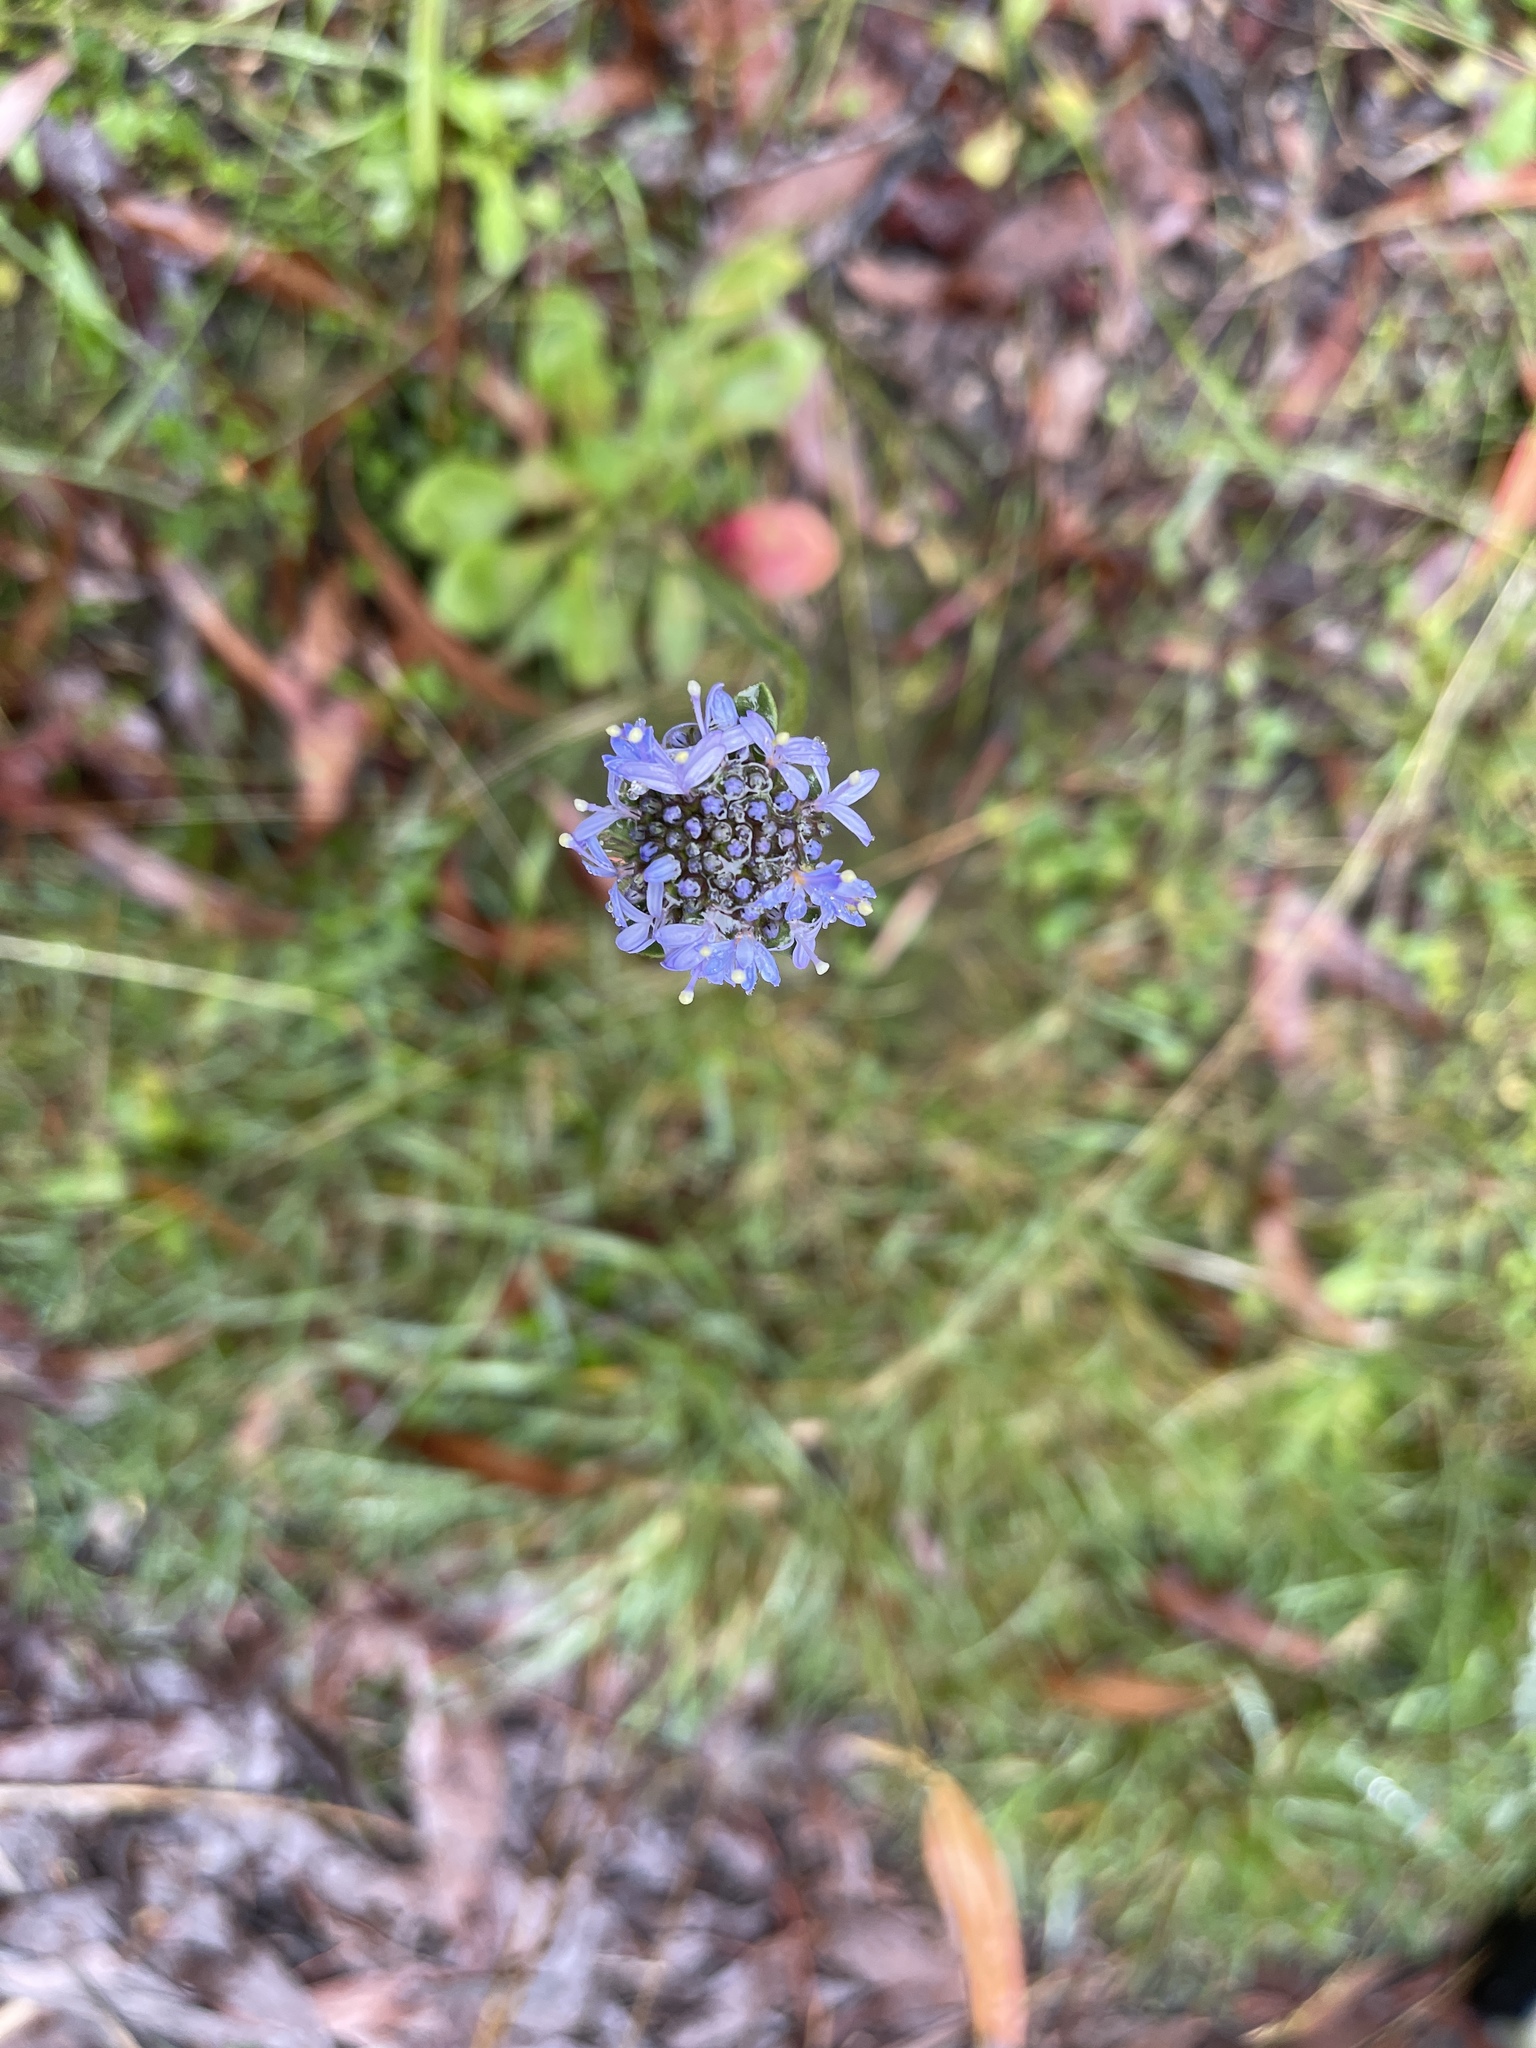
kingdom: Plantae
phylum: Tracheophyta
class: Magnoliopsida
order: Asterales
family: Goodeniaceae
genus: Brunonia
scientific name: Brunonia australis
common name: Blue pincushion
